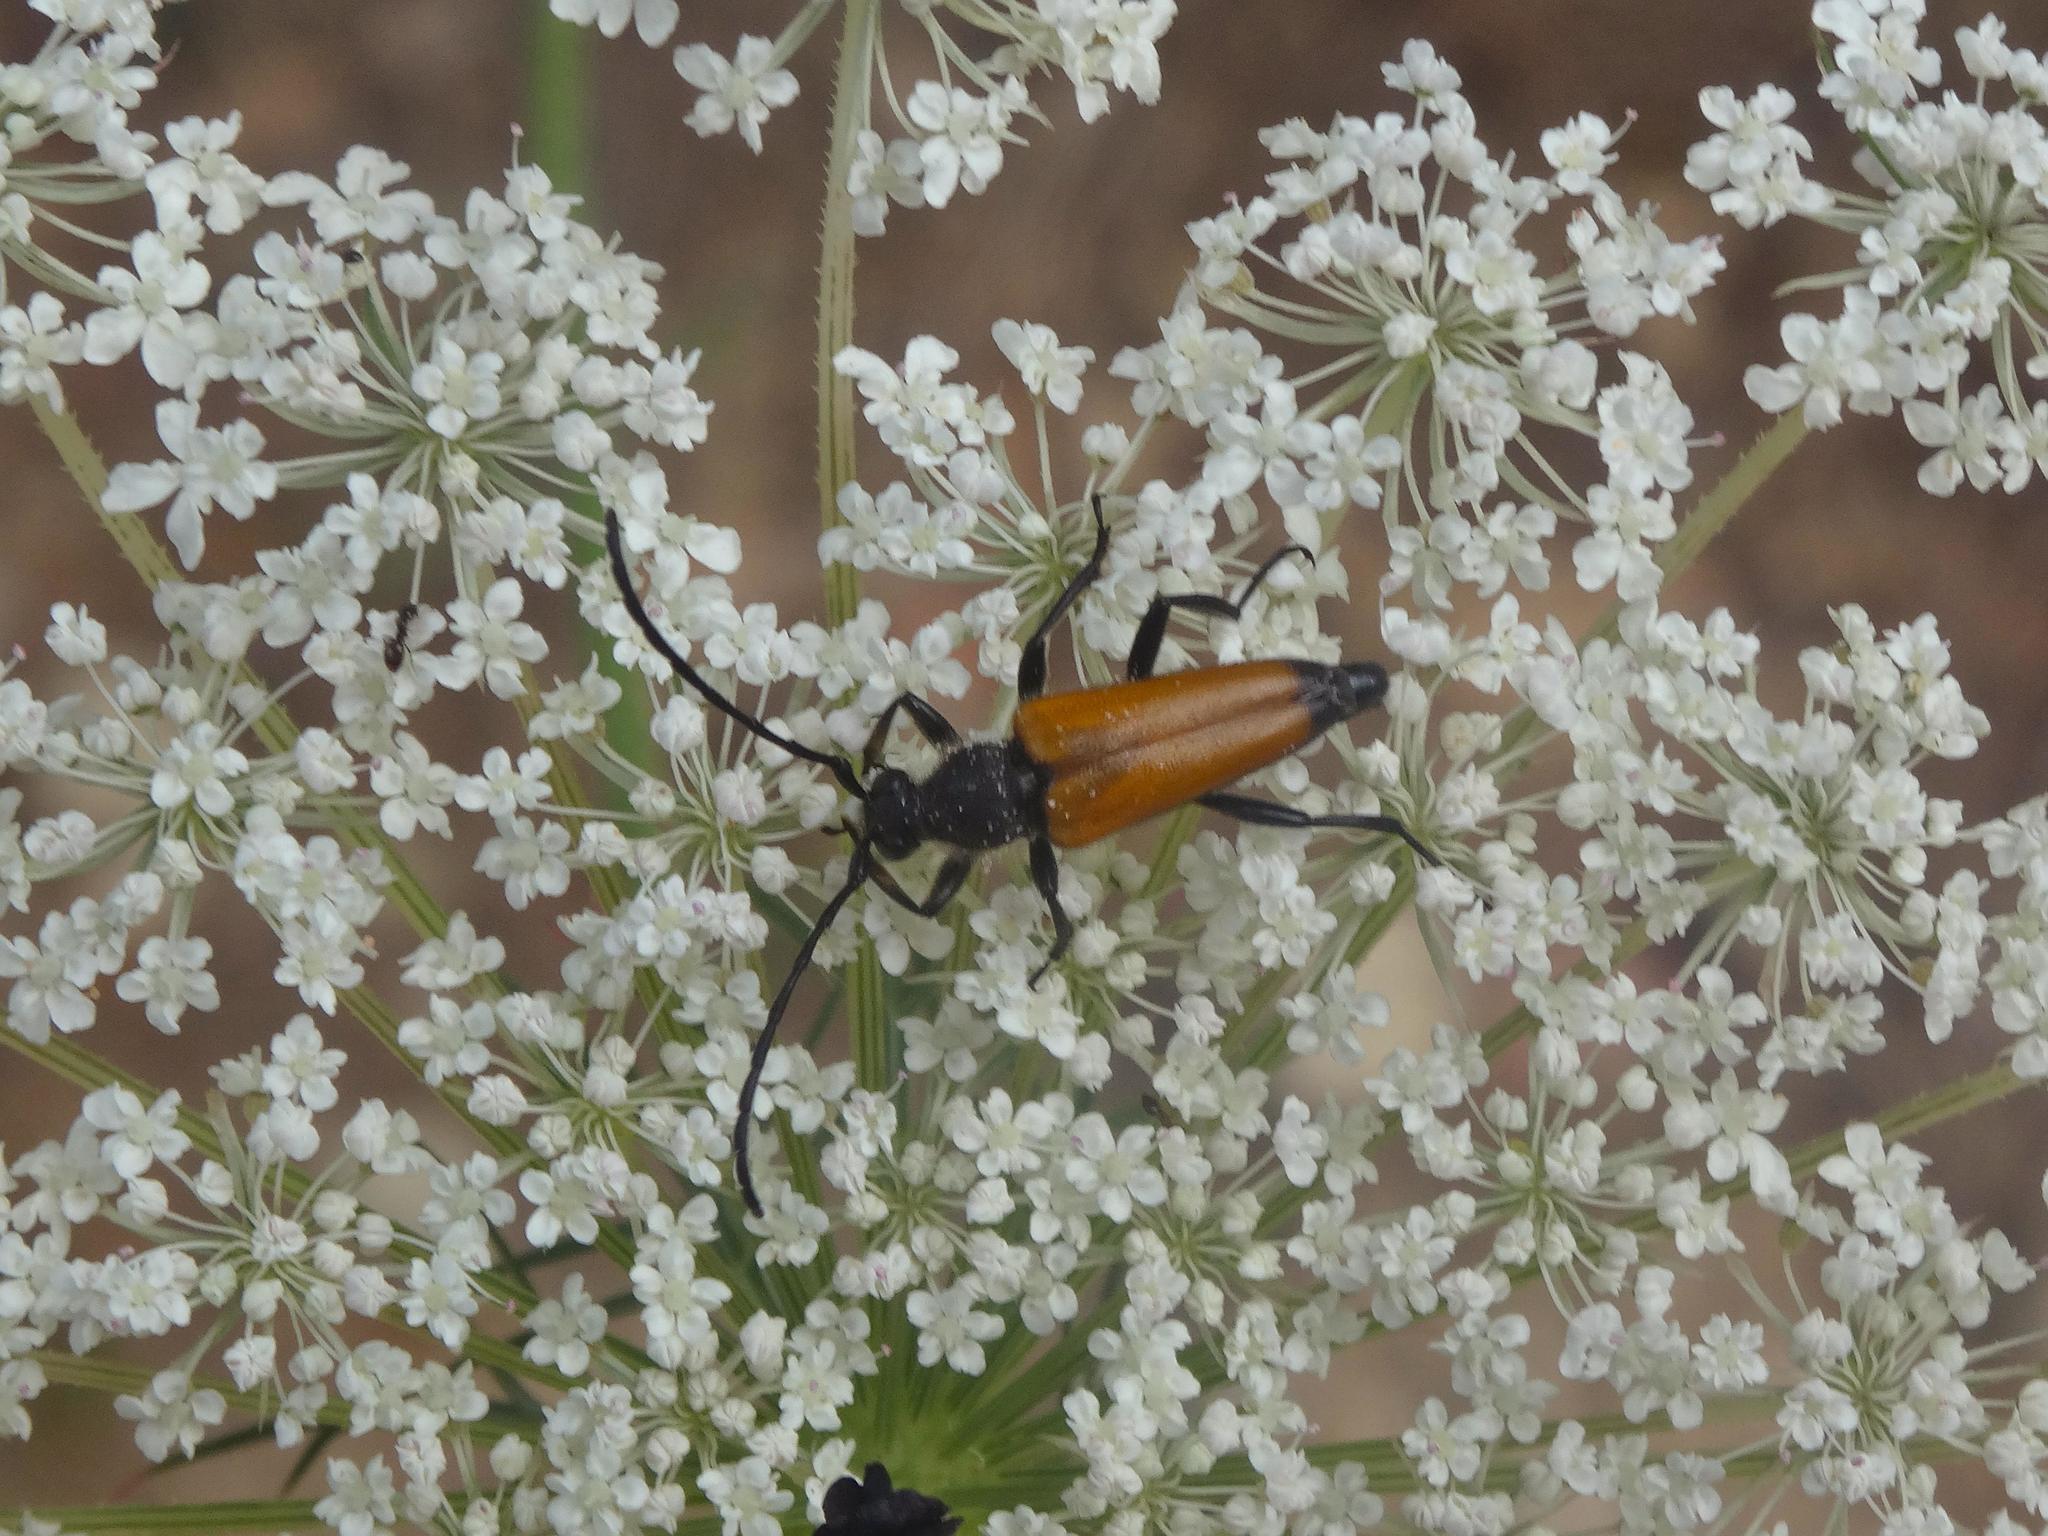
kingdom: Animalia
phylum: Arthropoda
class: Insecta
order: Coleoptera
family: Cerambycidae
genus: Paracorymbia
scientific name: Paracorymbia fulva
